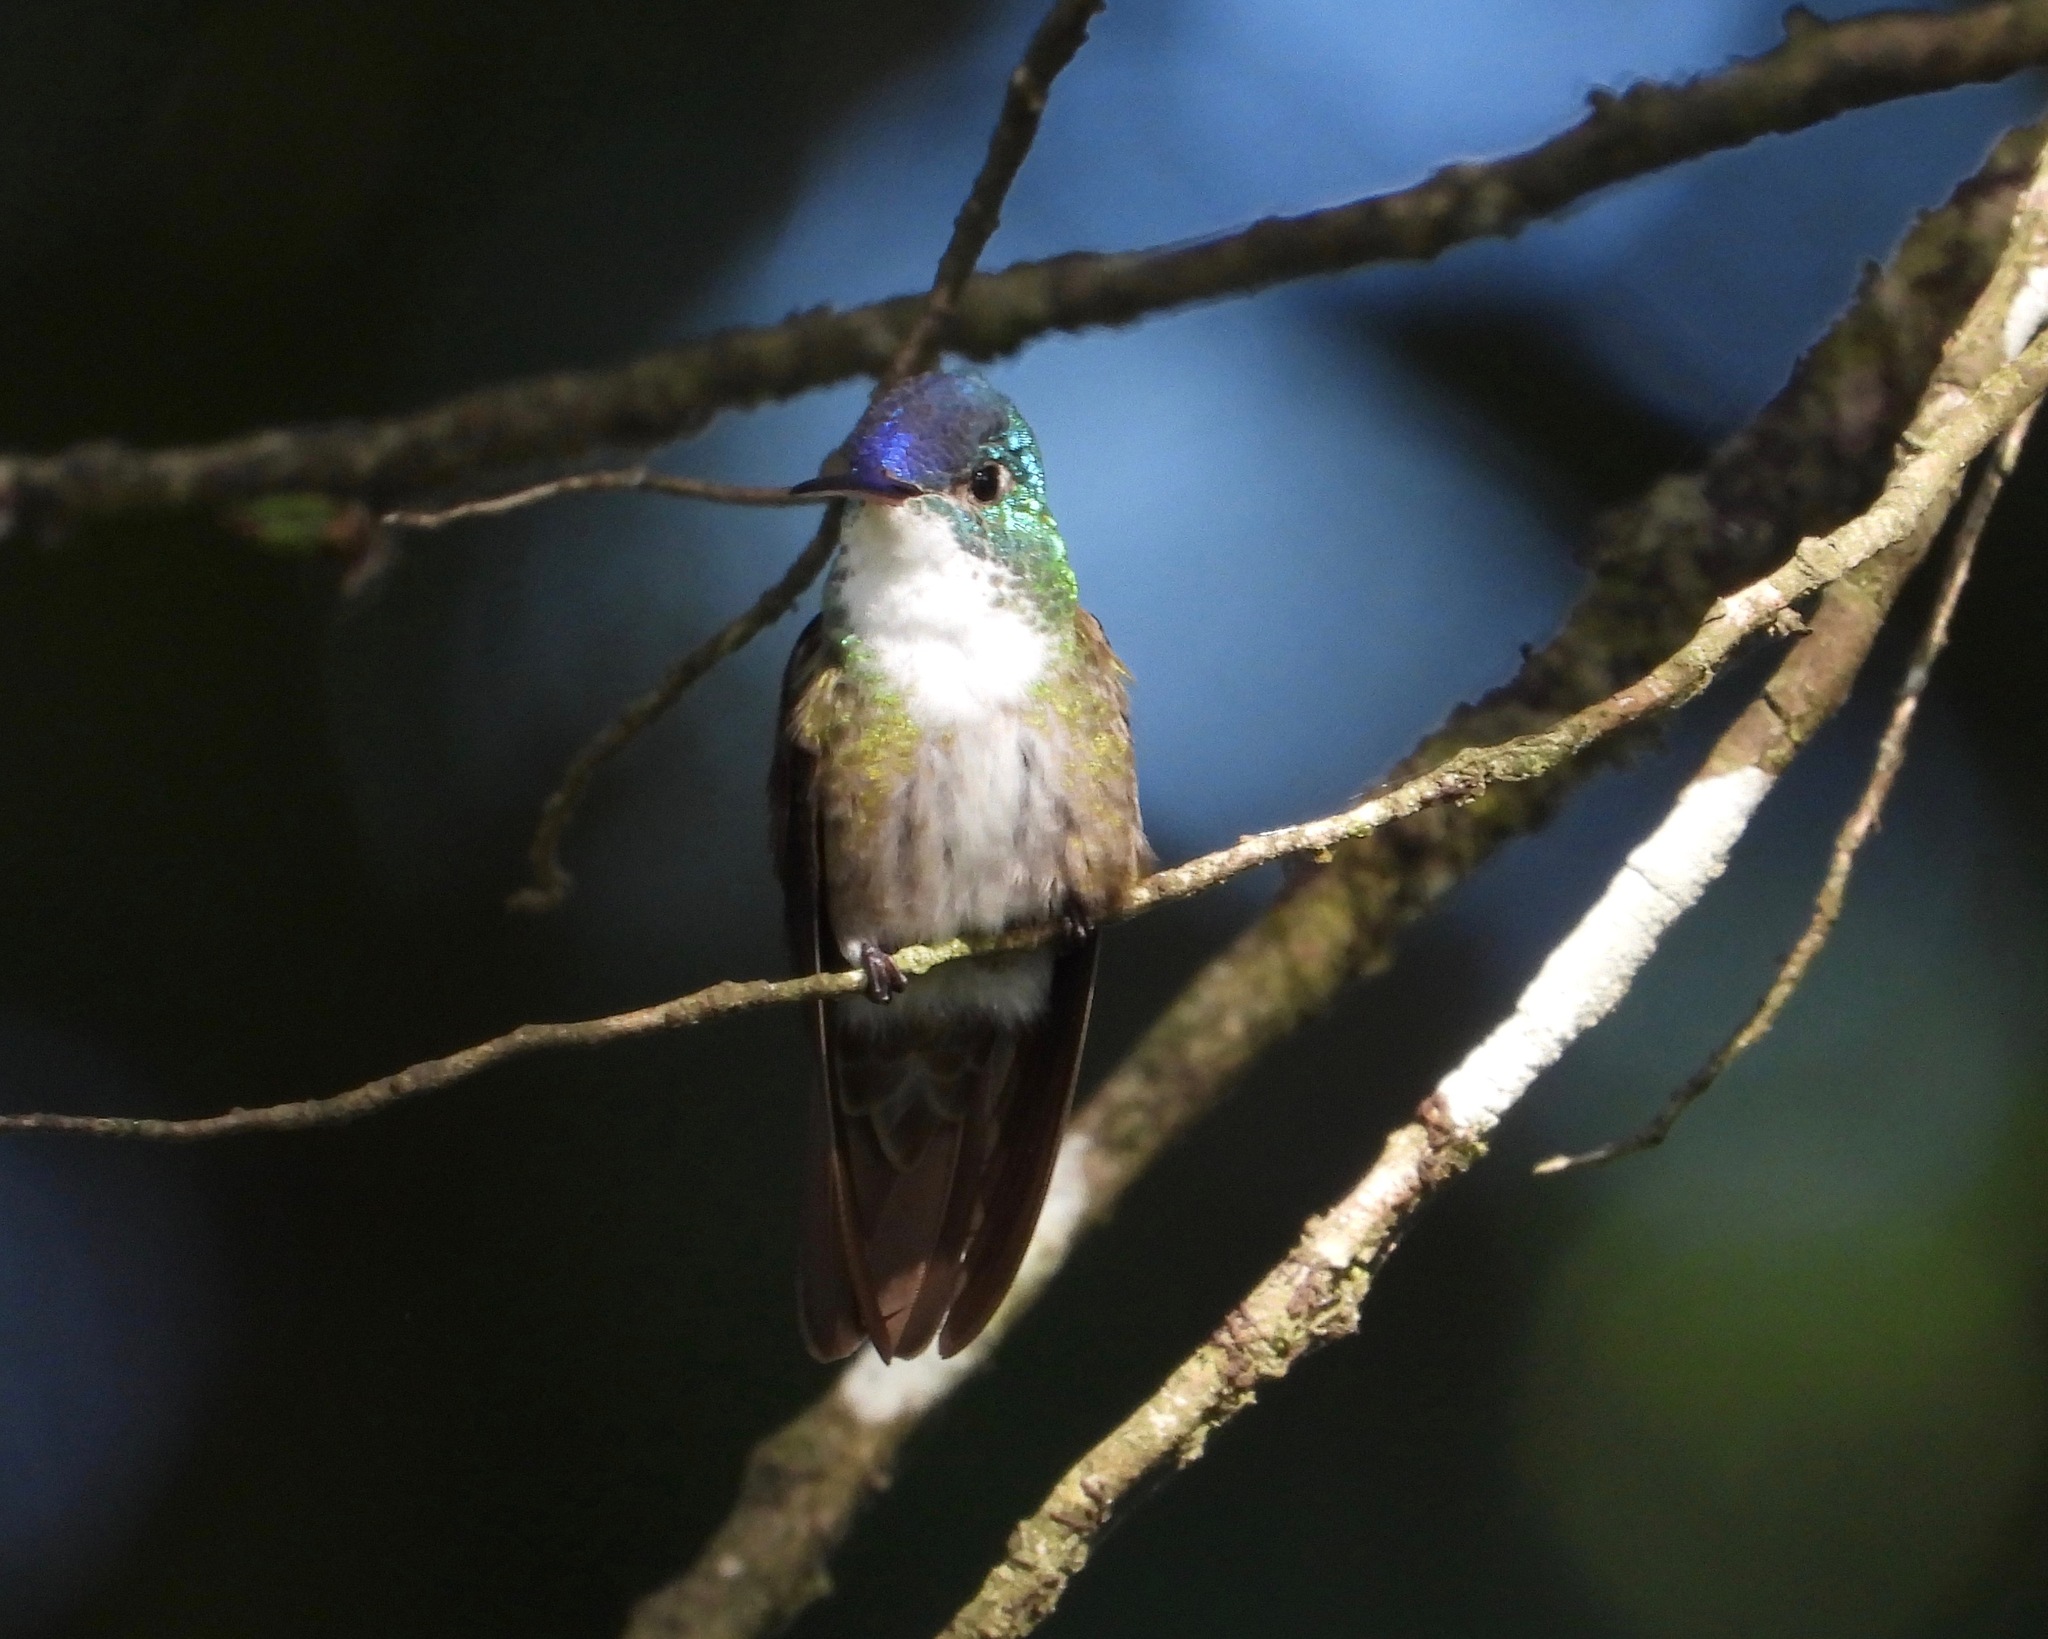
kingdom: Animalia
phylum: Chordata
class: Aves
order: Apodiformes
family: Trochilidae
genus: Saucerottia
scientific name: Saucerottia cyanocephala
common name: Azure-crowned hummingbird
